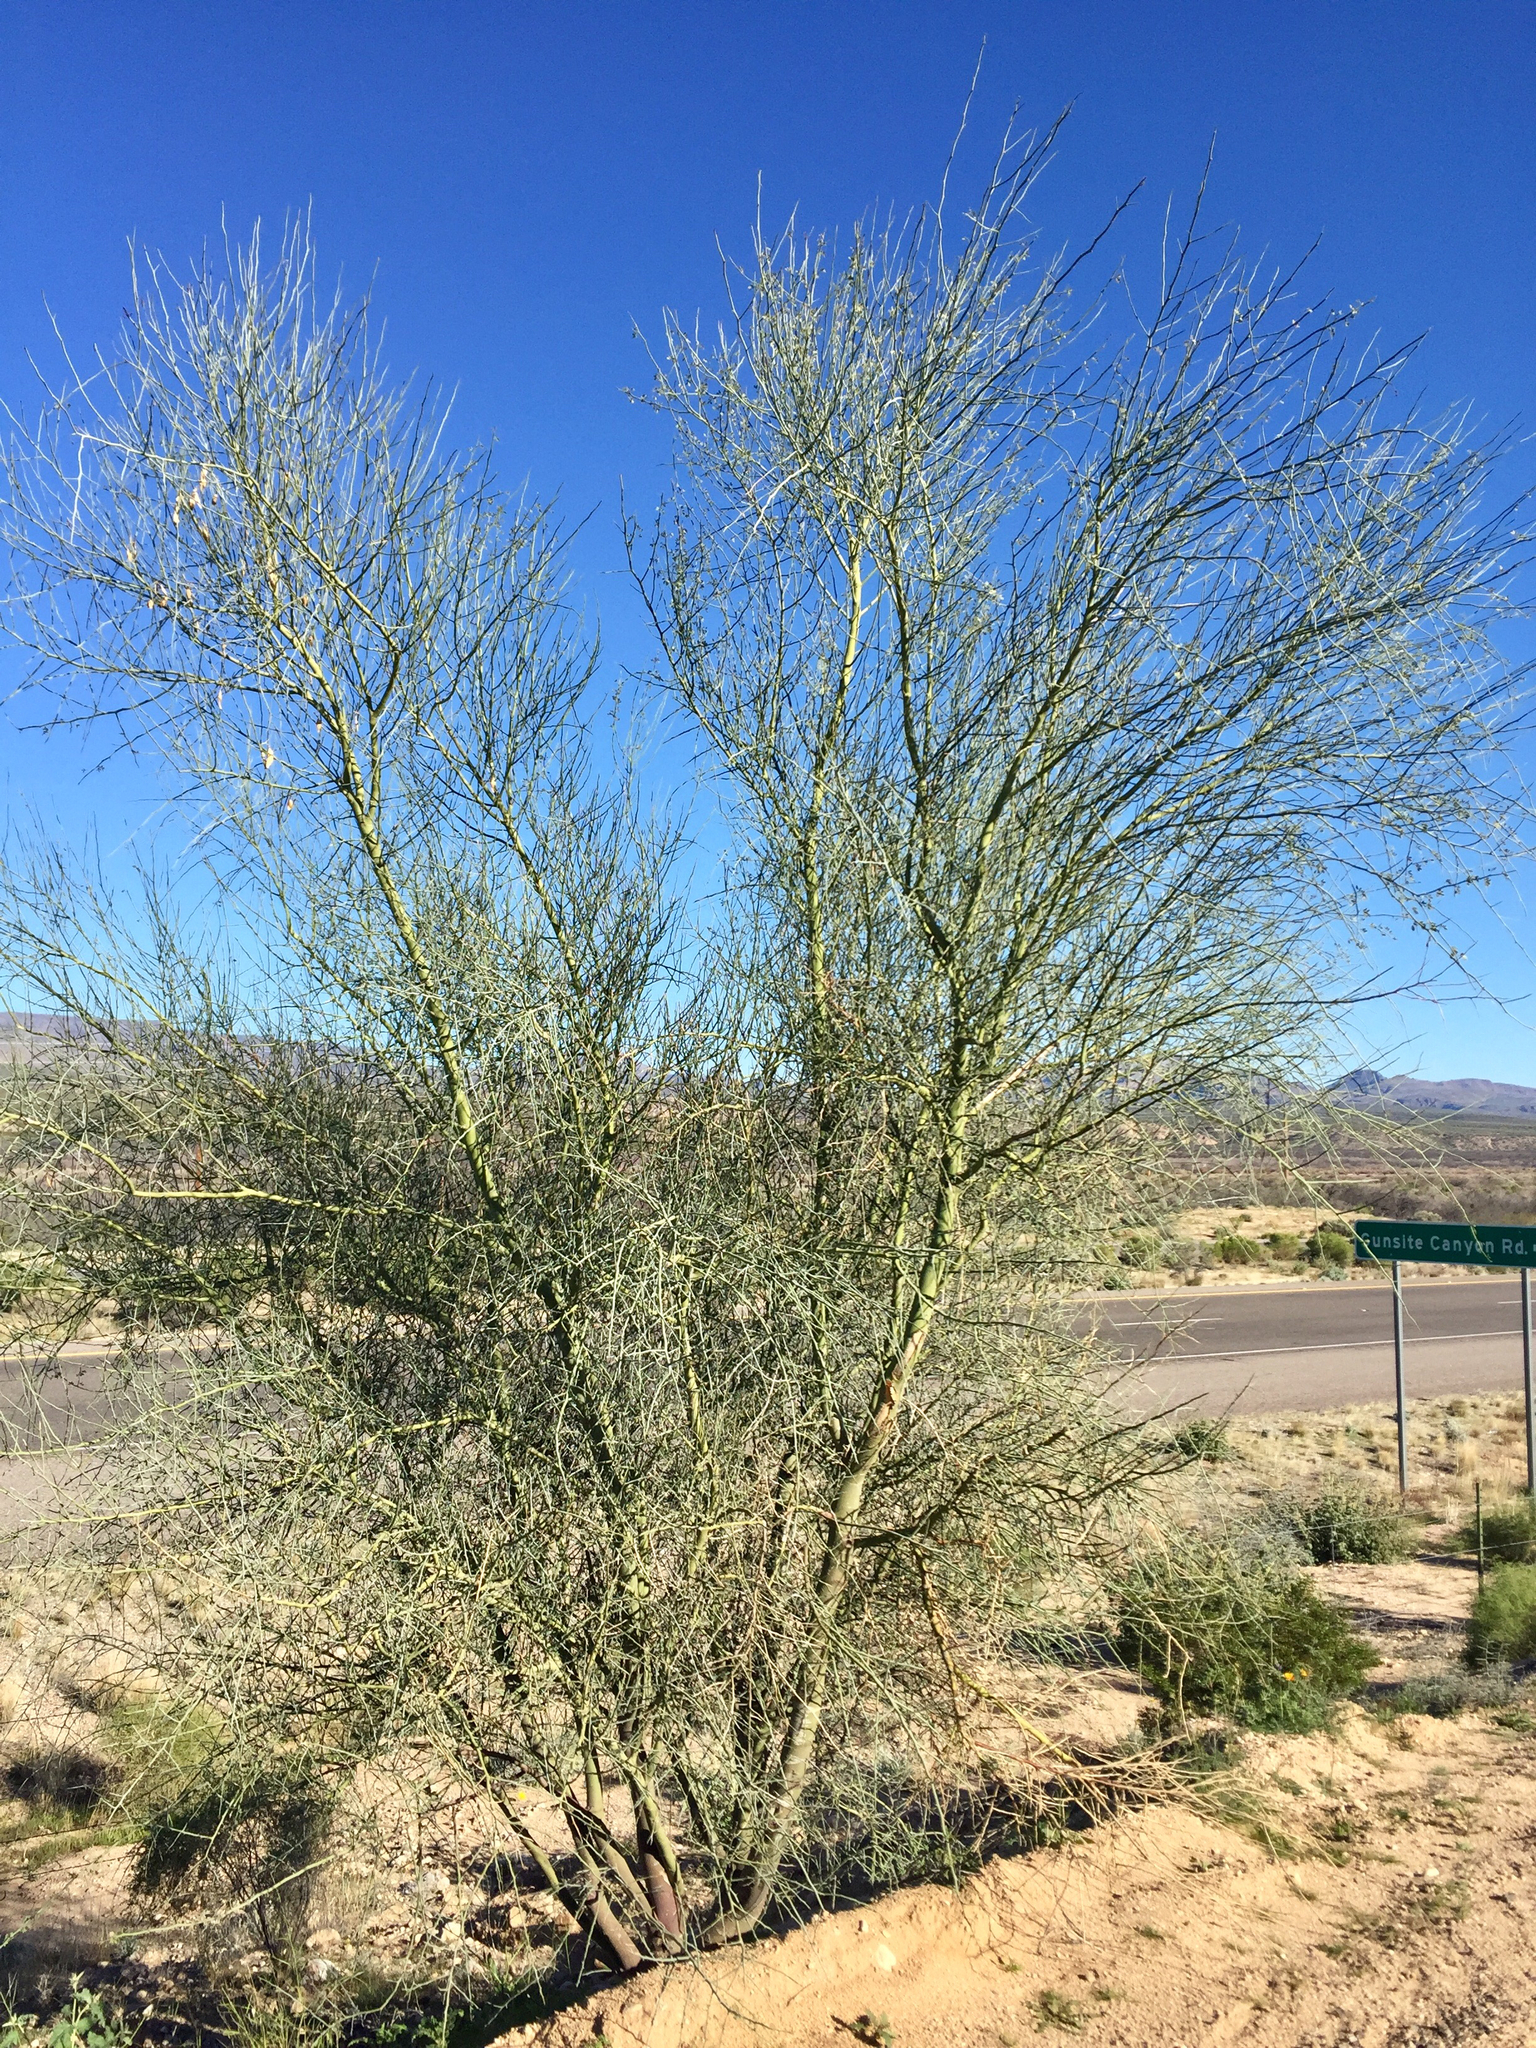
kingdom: Plantae
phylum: Tracheophyta
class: Magnoliopsida
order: Fabales
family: Fabaceae
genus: Parkinsonia
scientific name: Parkinsonia florida
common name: Blue paloverde
